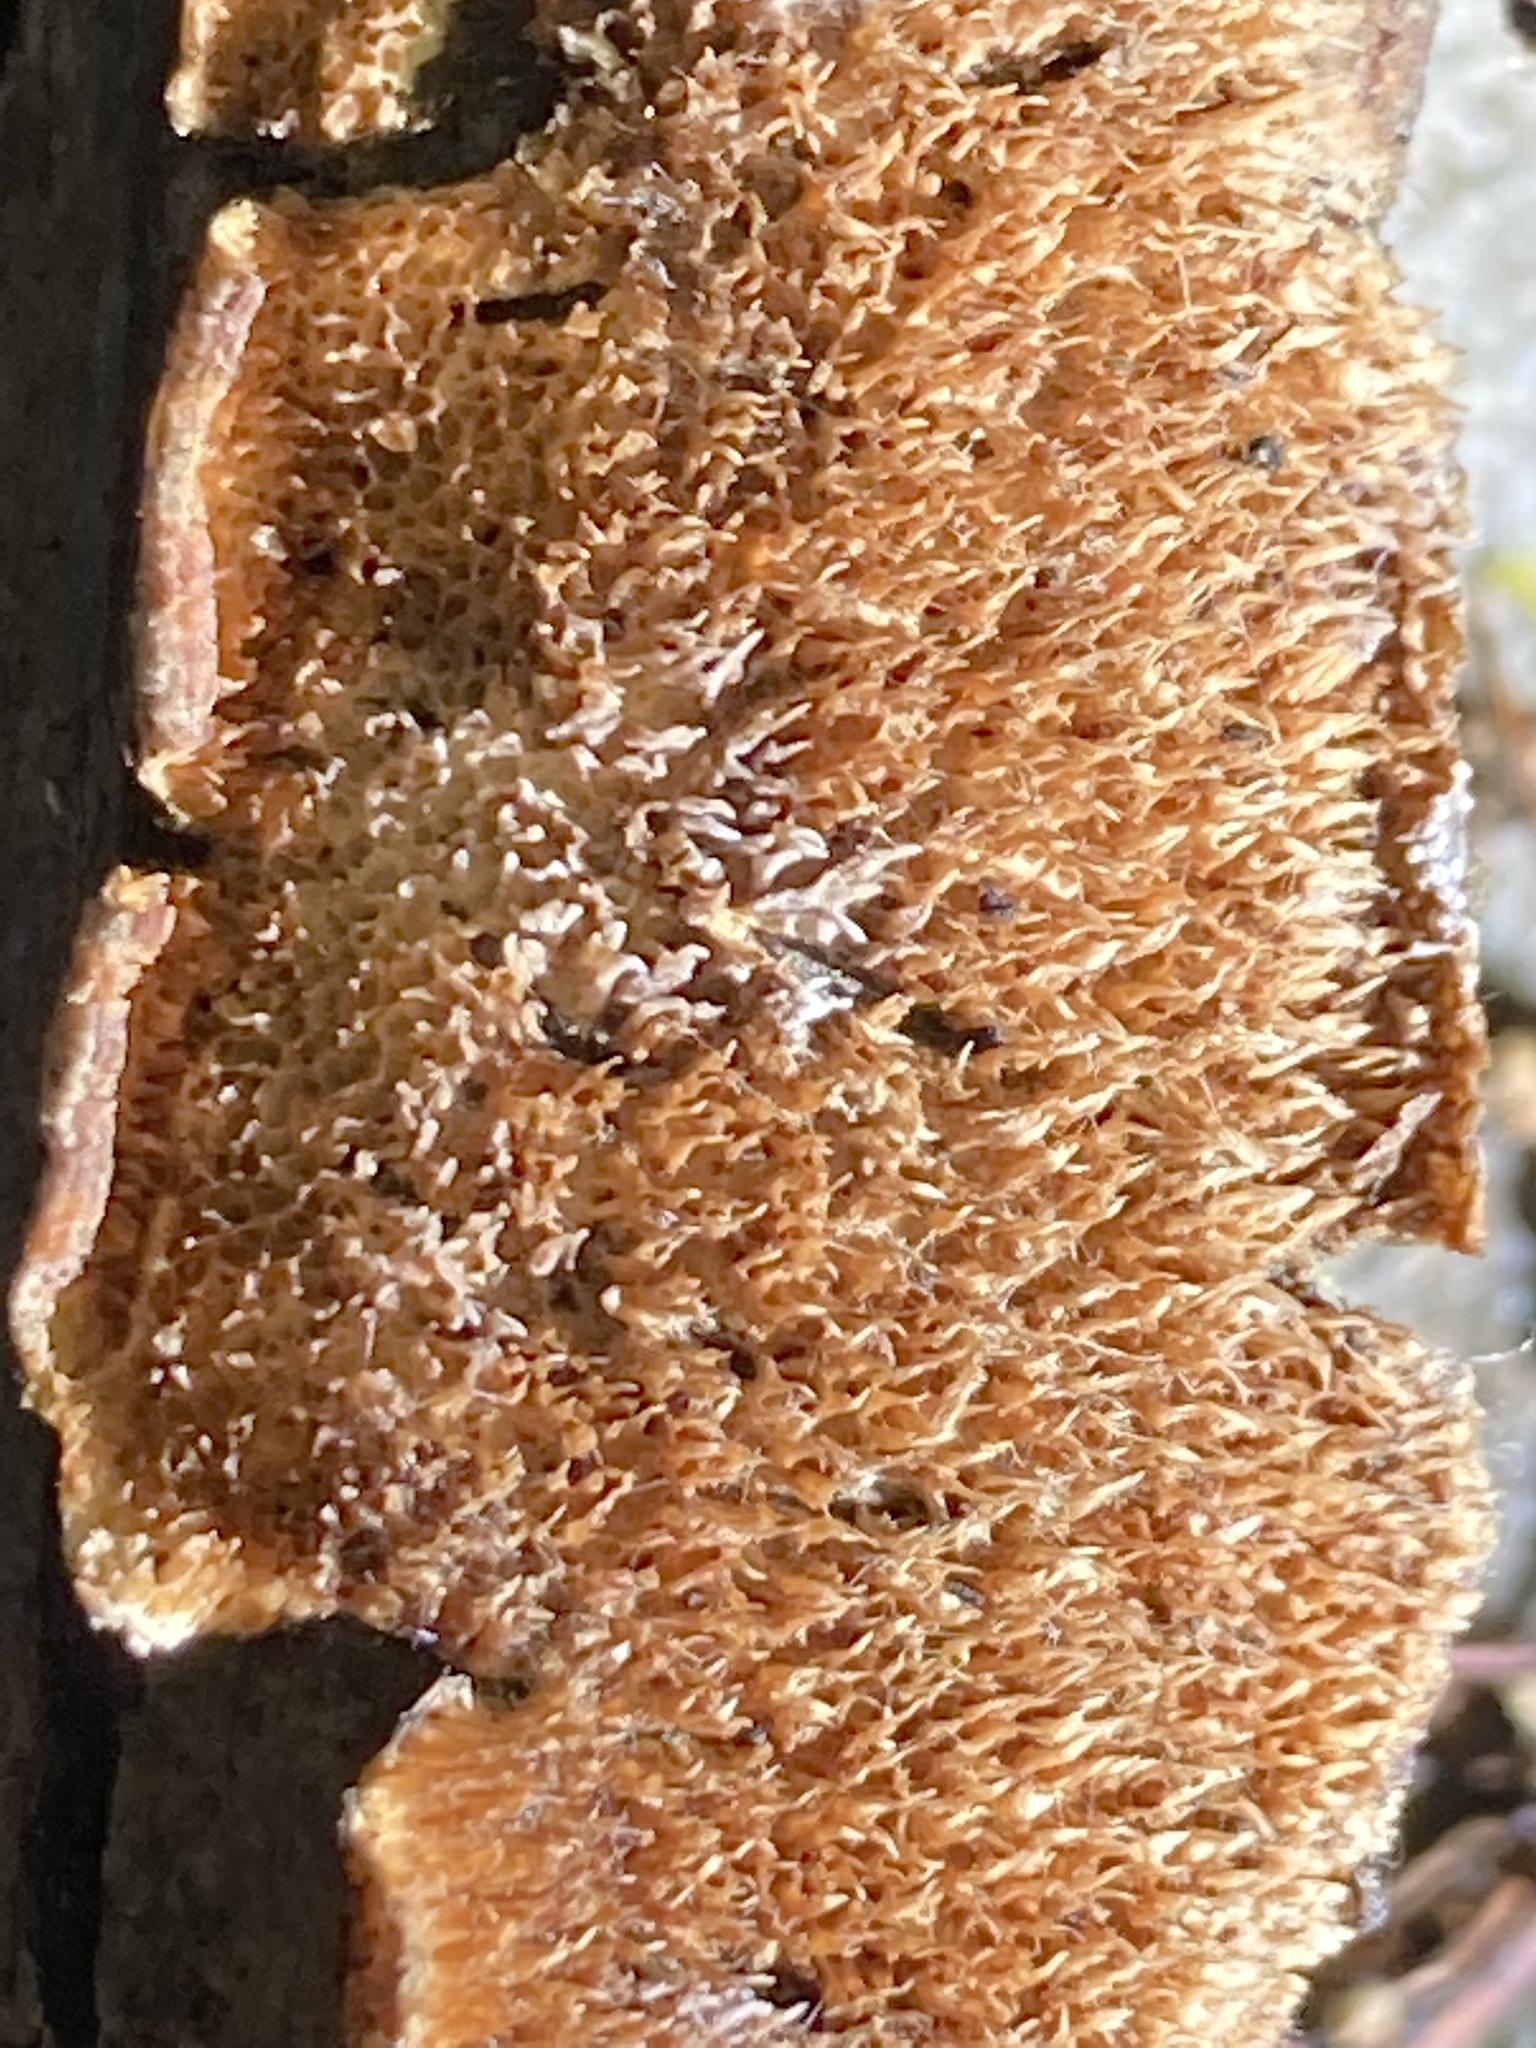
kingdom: Fungi
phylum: Basidiomycota
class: Agaricomycetes
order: Polyporales
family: Steccherinaceae
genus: Steccherinum
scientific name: Steccherinum ochraceum
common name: Ochre spreading tooth
